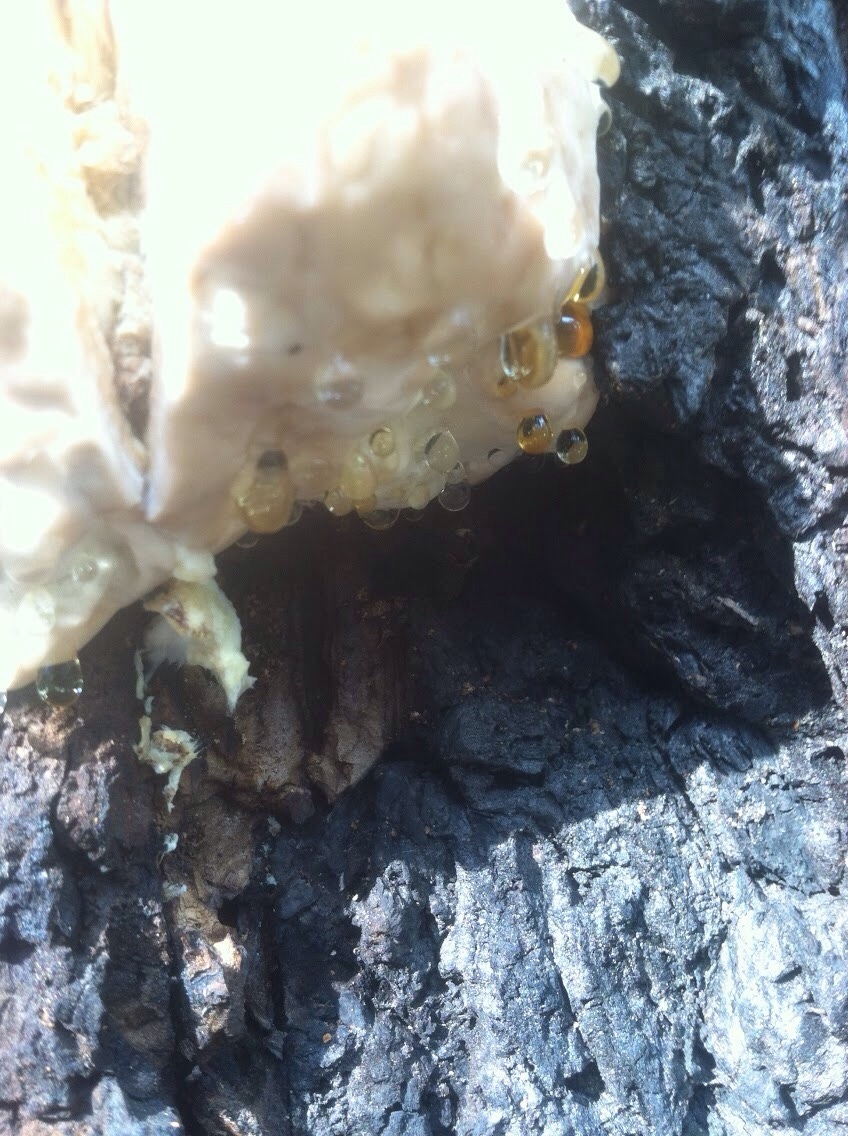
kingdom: Fungi
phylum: Basidiomycota
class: Agaricomycetes
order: Polyporales
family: Fomitopsidaceae
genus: Fomitopsis
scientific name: Fomitopsis schrenkii
